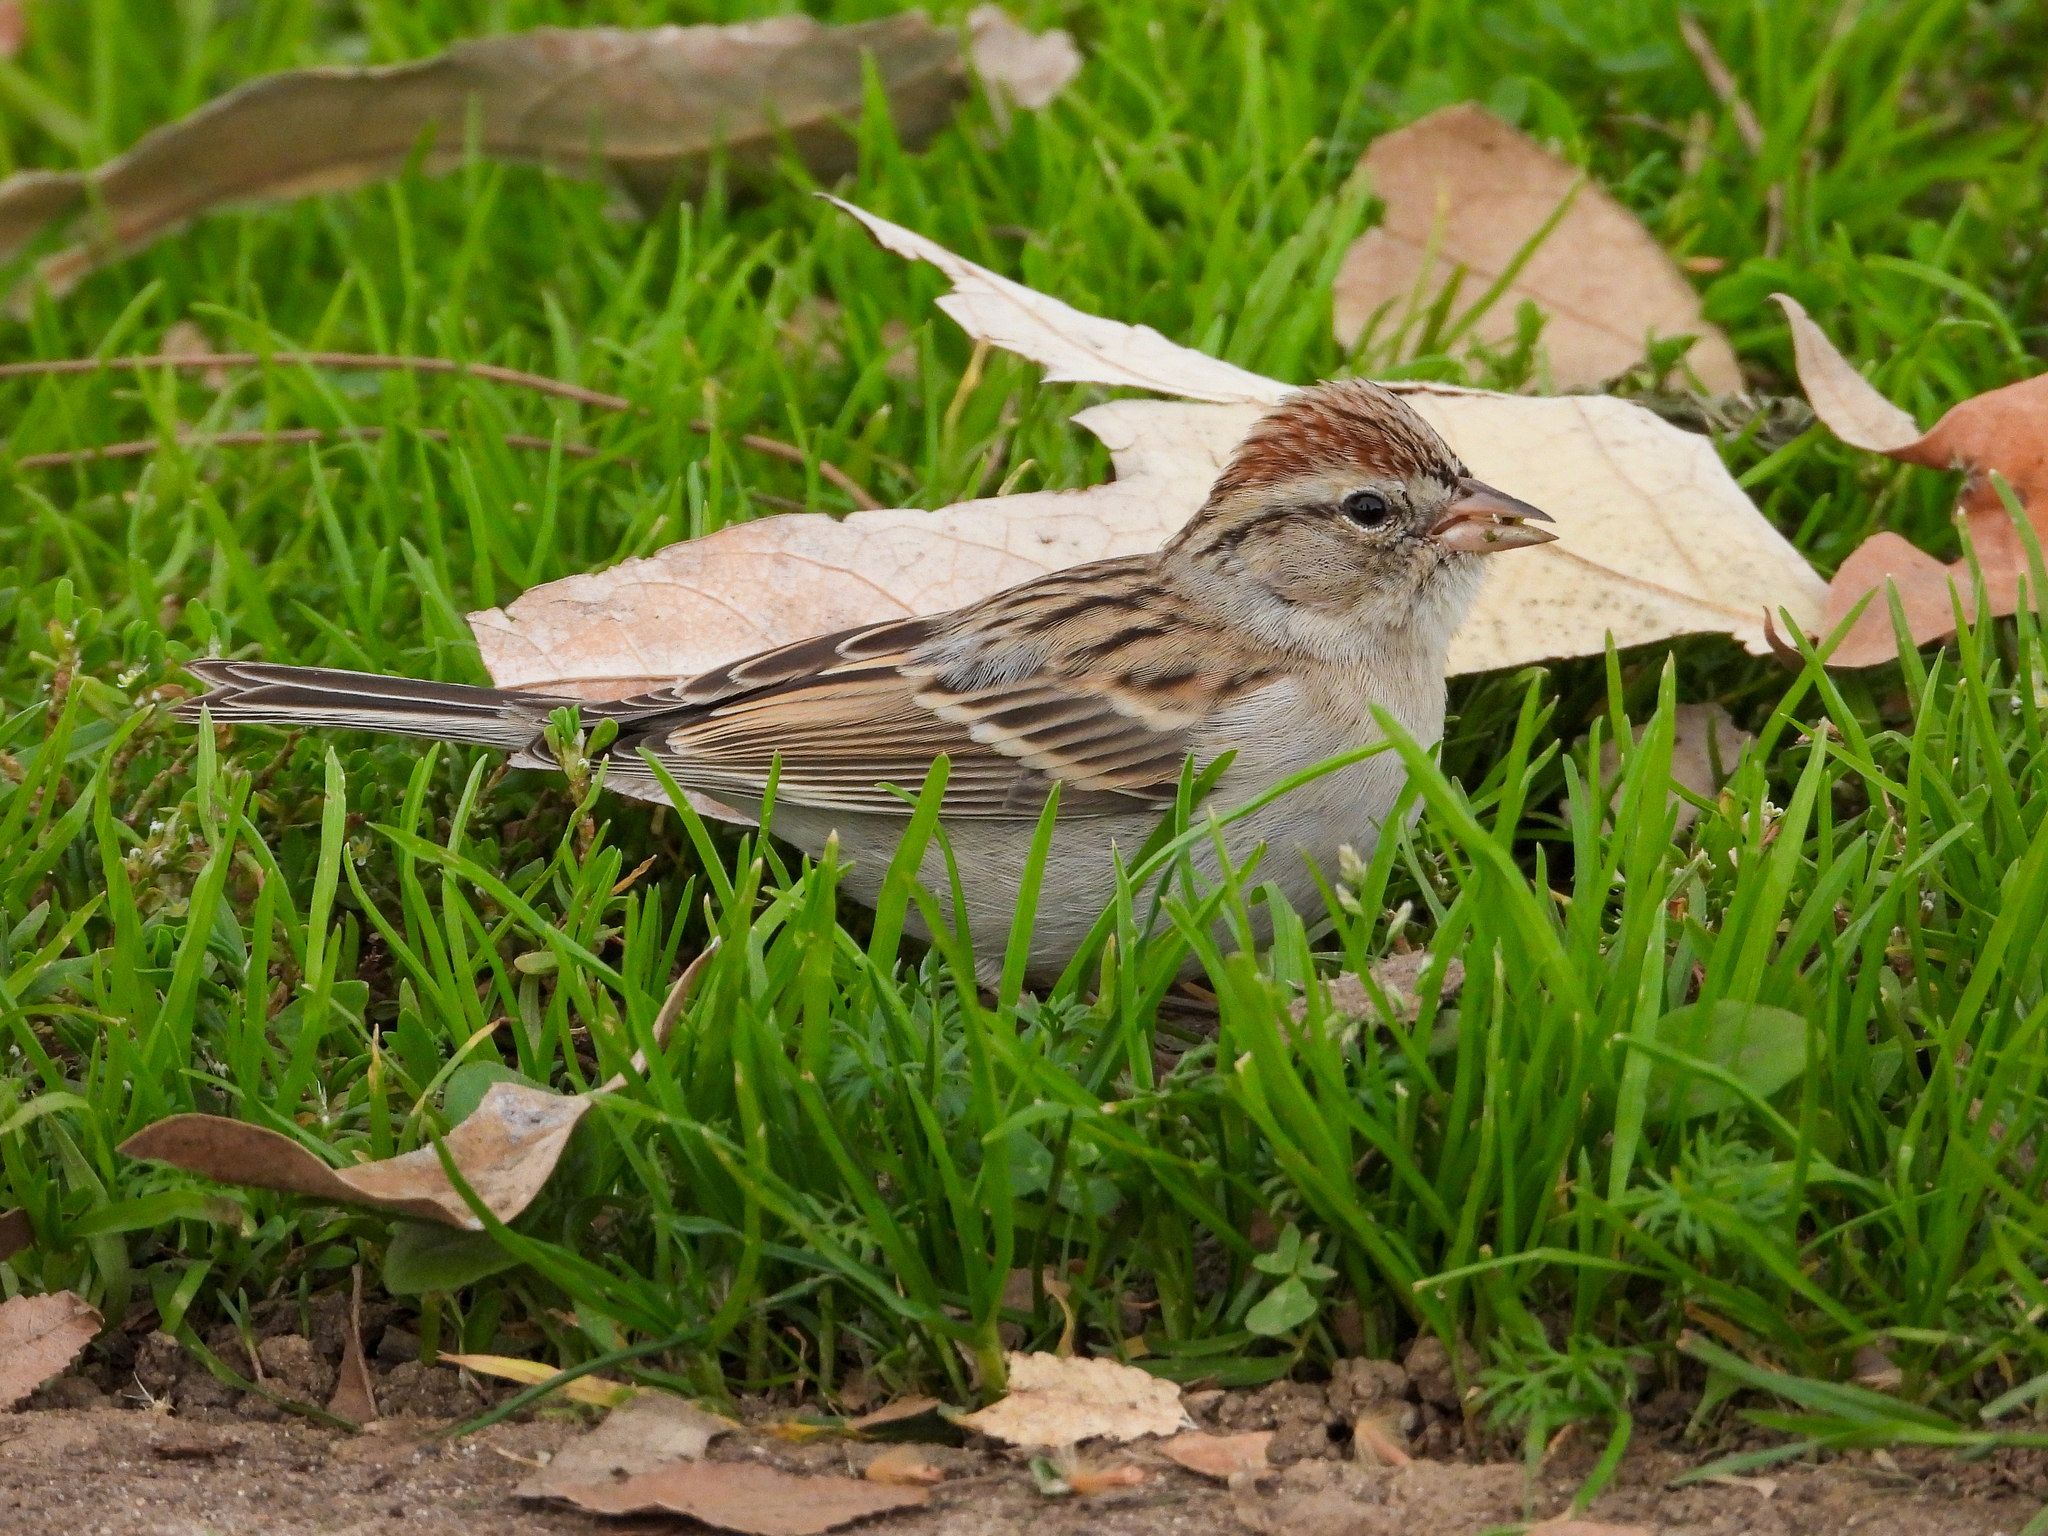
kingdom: Animalia
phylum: Chordata
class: Aves
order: Passeriformes
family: Passerellidae
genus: Spizella
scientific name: Spizella passerina
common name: Chipping sparrow
